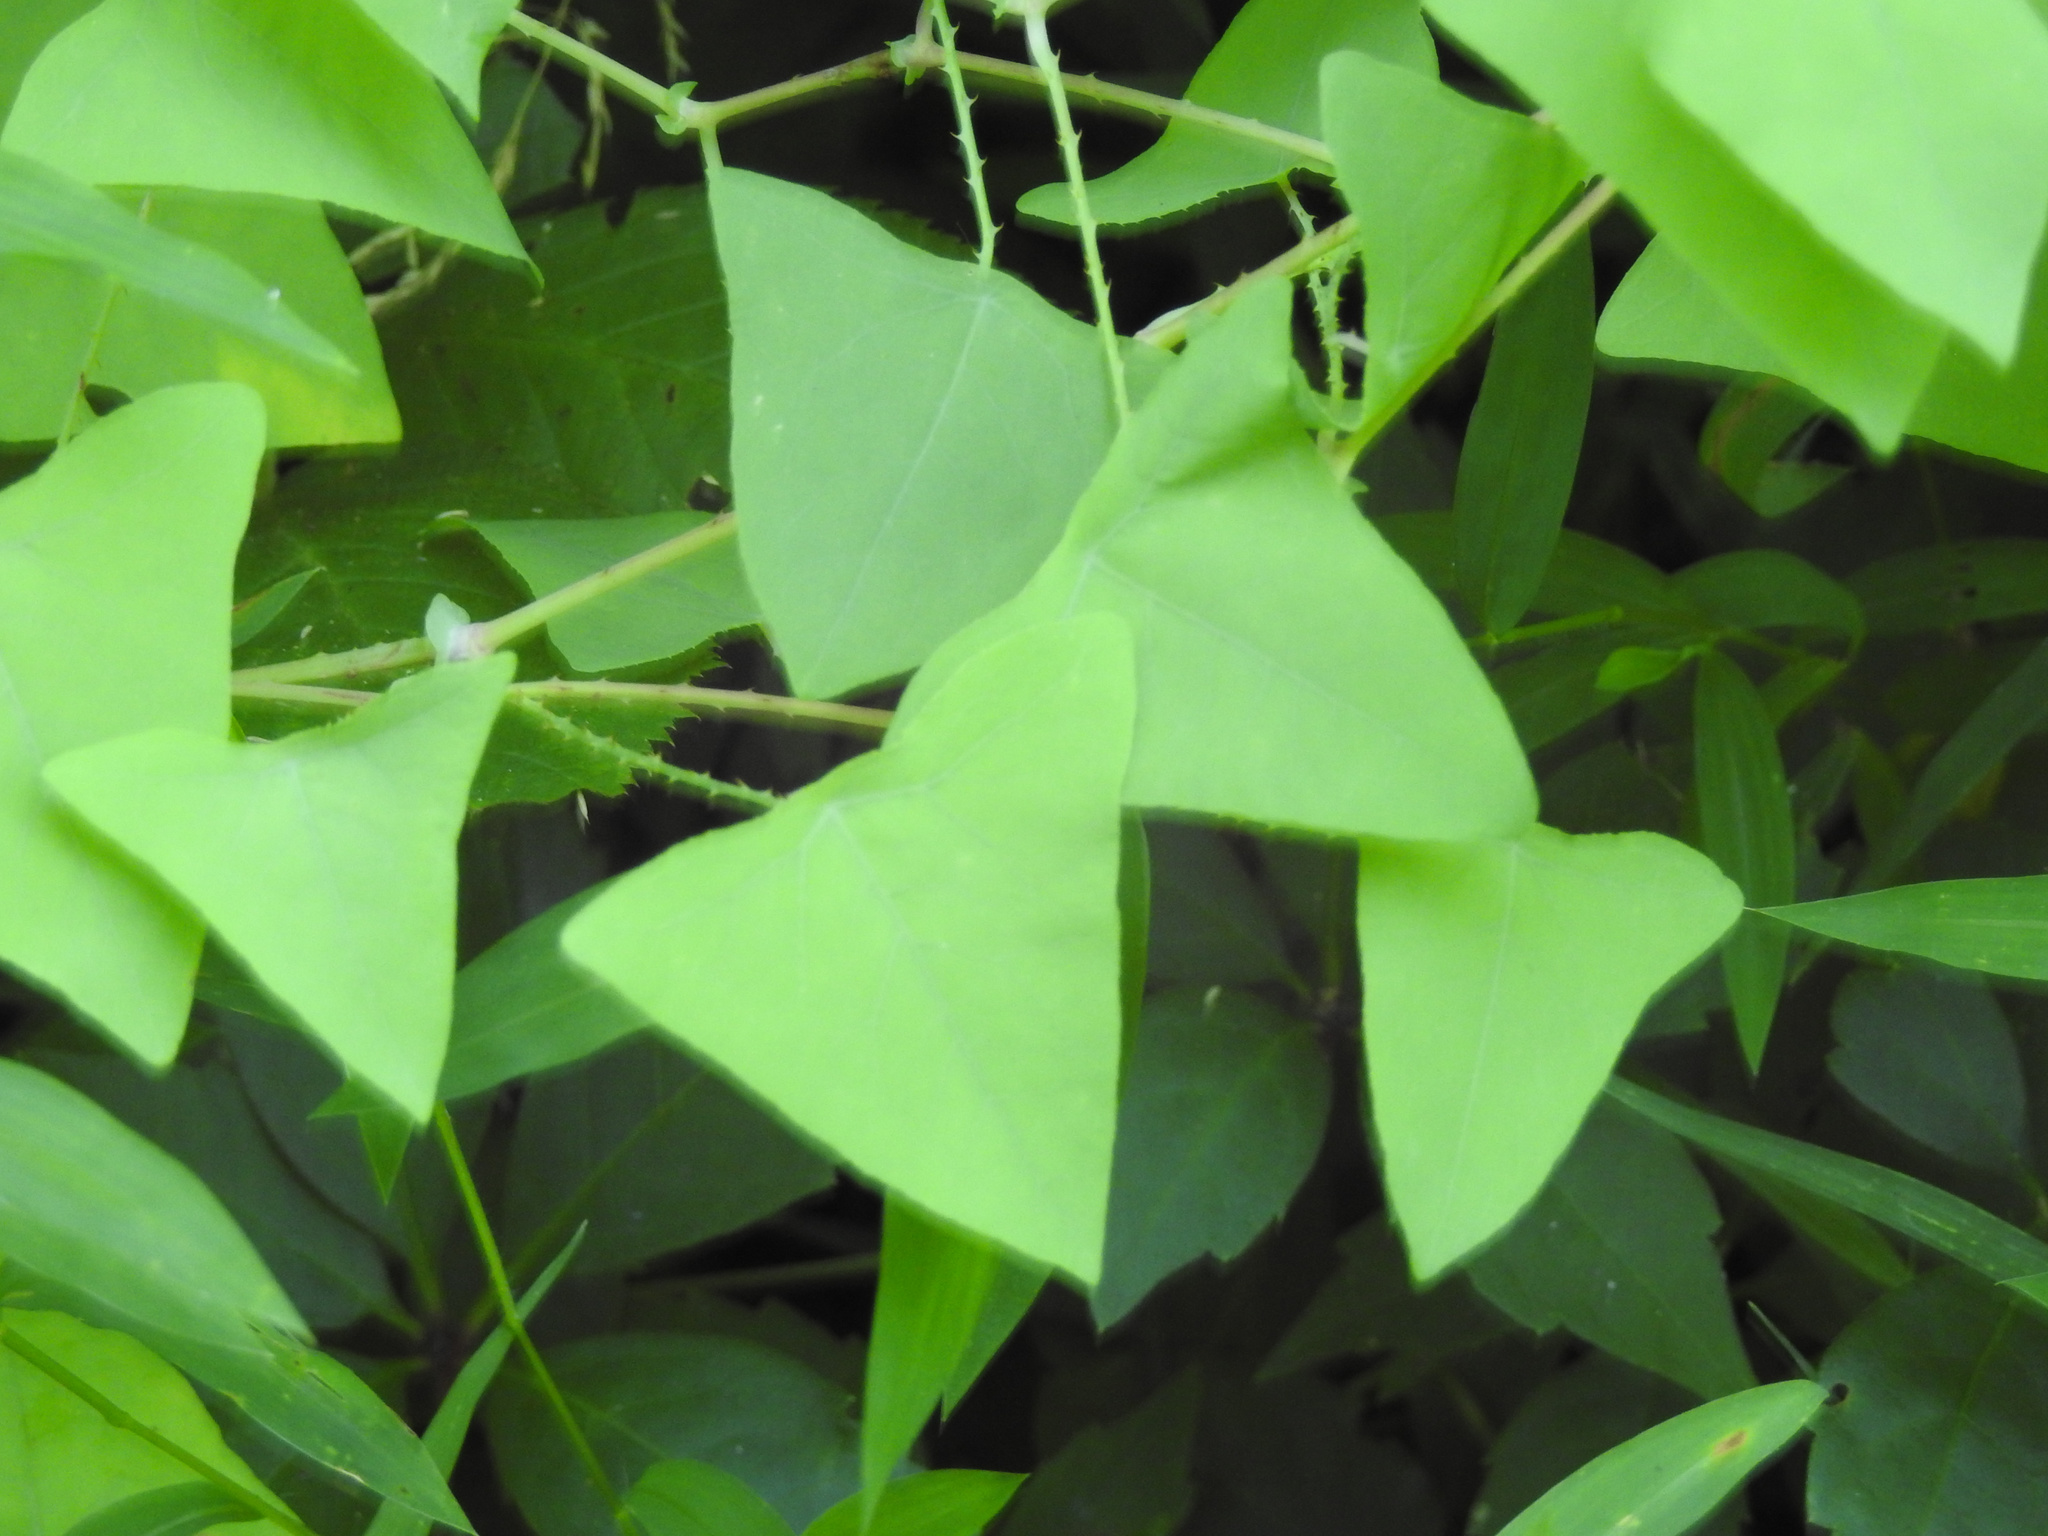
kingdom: Plantae
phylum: Tracheophyta
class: Magnoliopsida
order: Caryophyllales
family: Polygonaceae
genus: Persicaria
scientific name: Persicaria perfoliata
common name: Asiatic tearthumb
